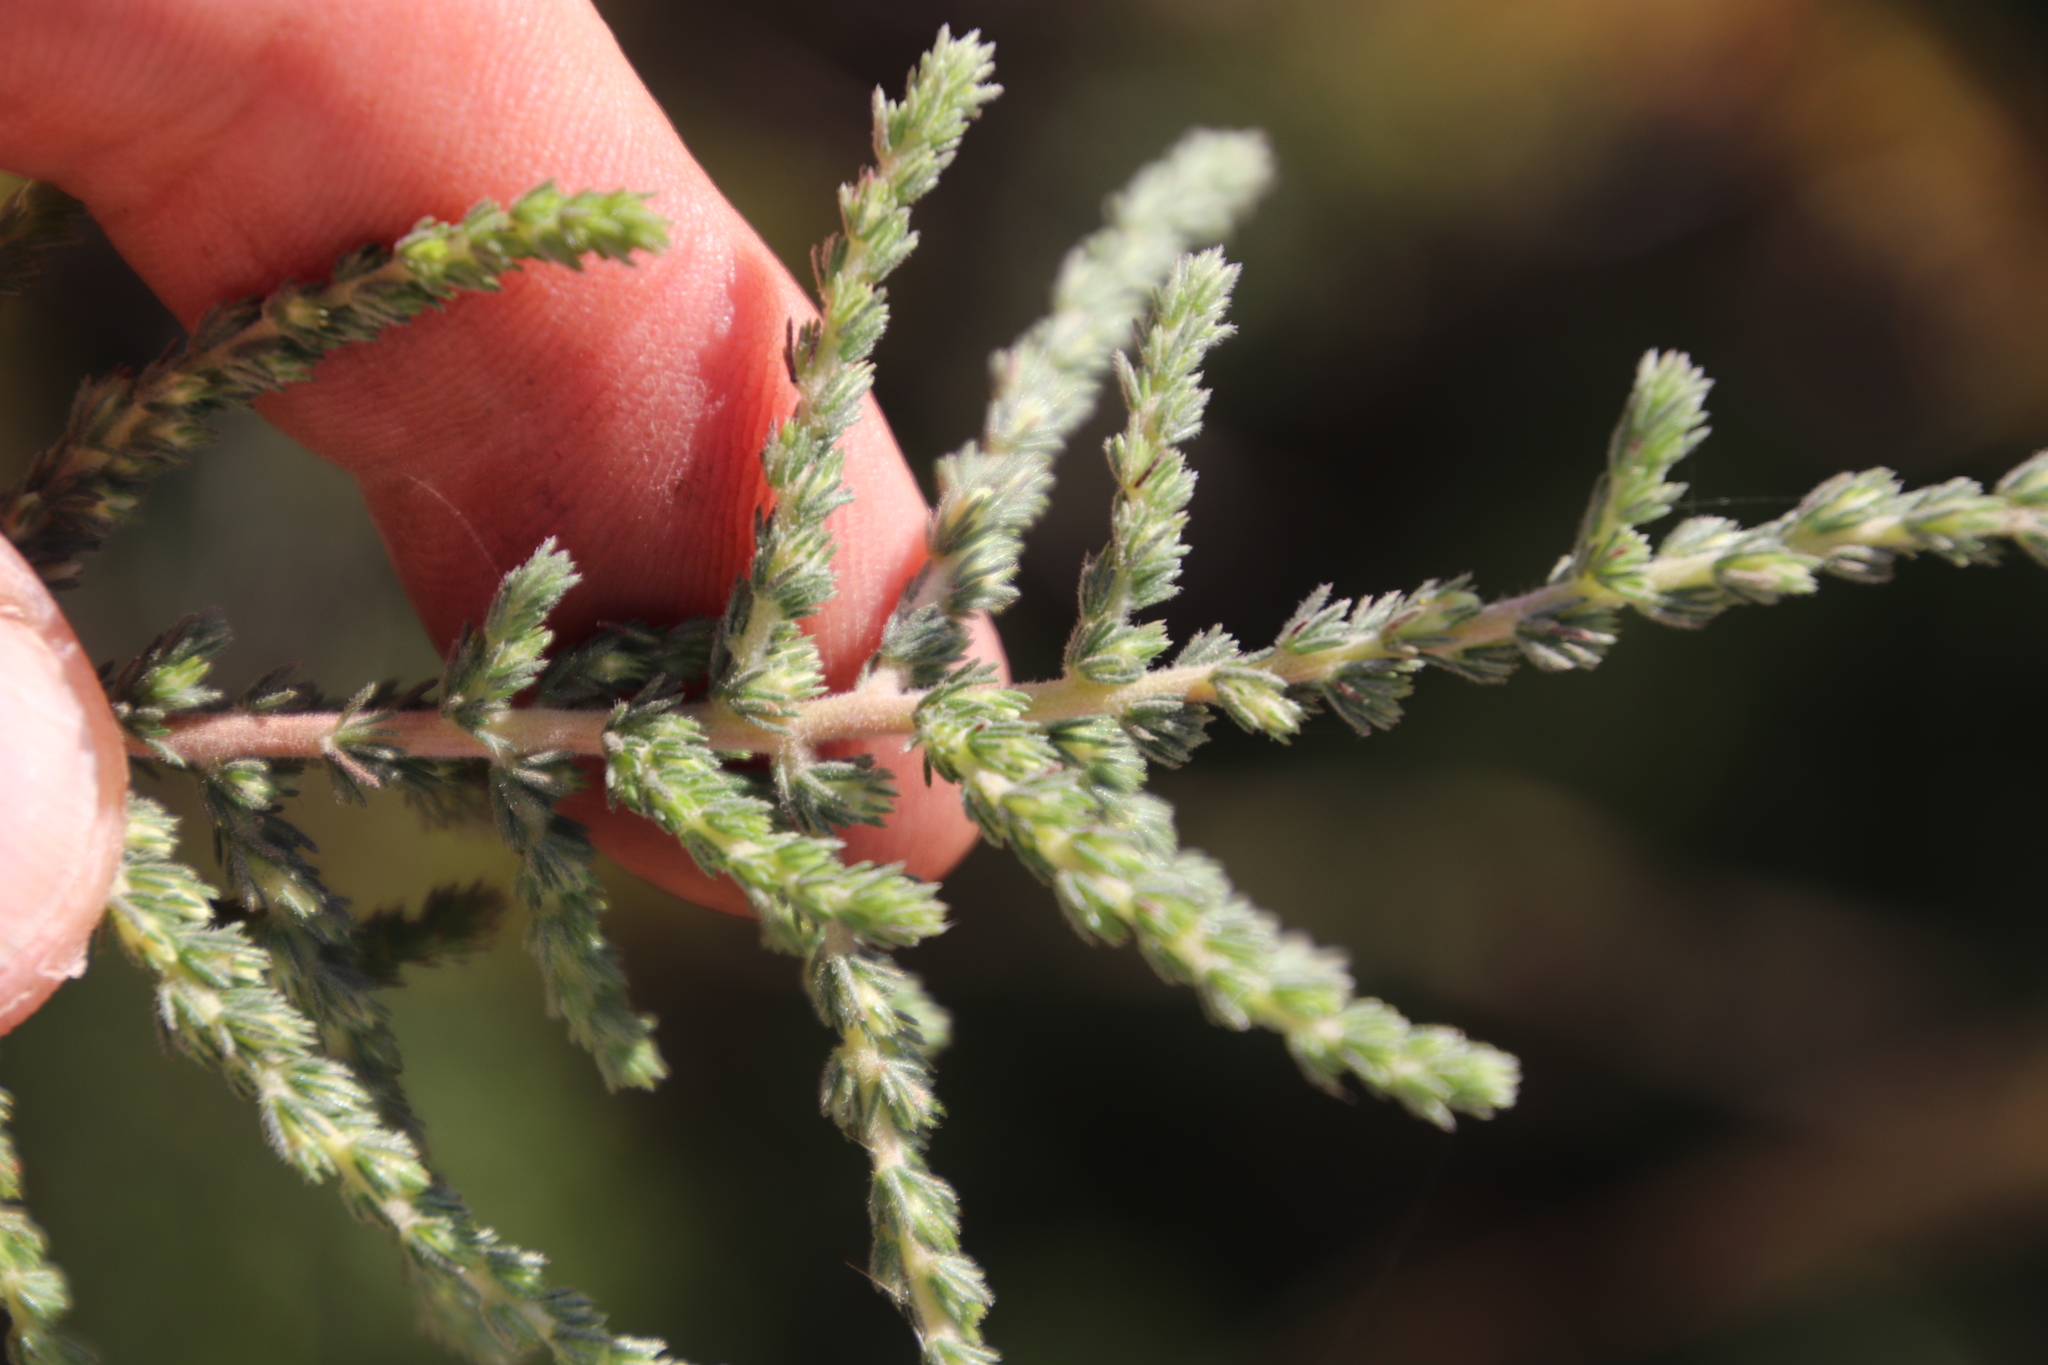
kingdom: Plantae
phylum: Tracheophyta
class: Magnoliopsida
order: Fabales
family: Fabaceae
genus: Aspalathus
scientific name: Aspalathus hispida
